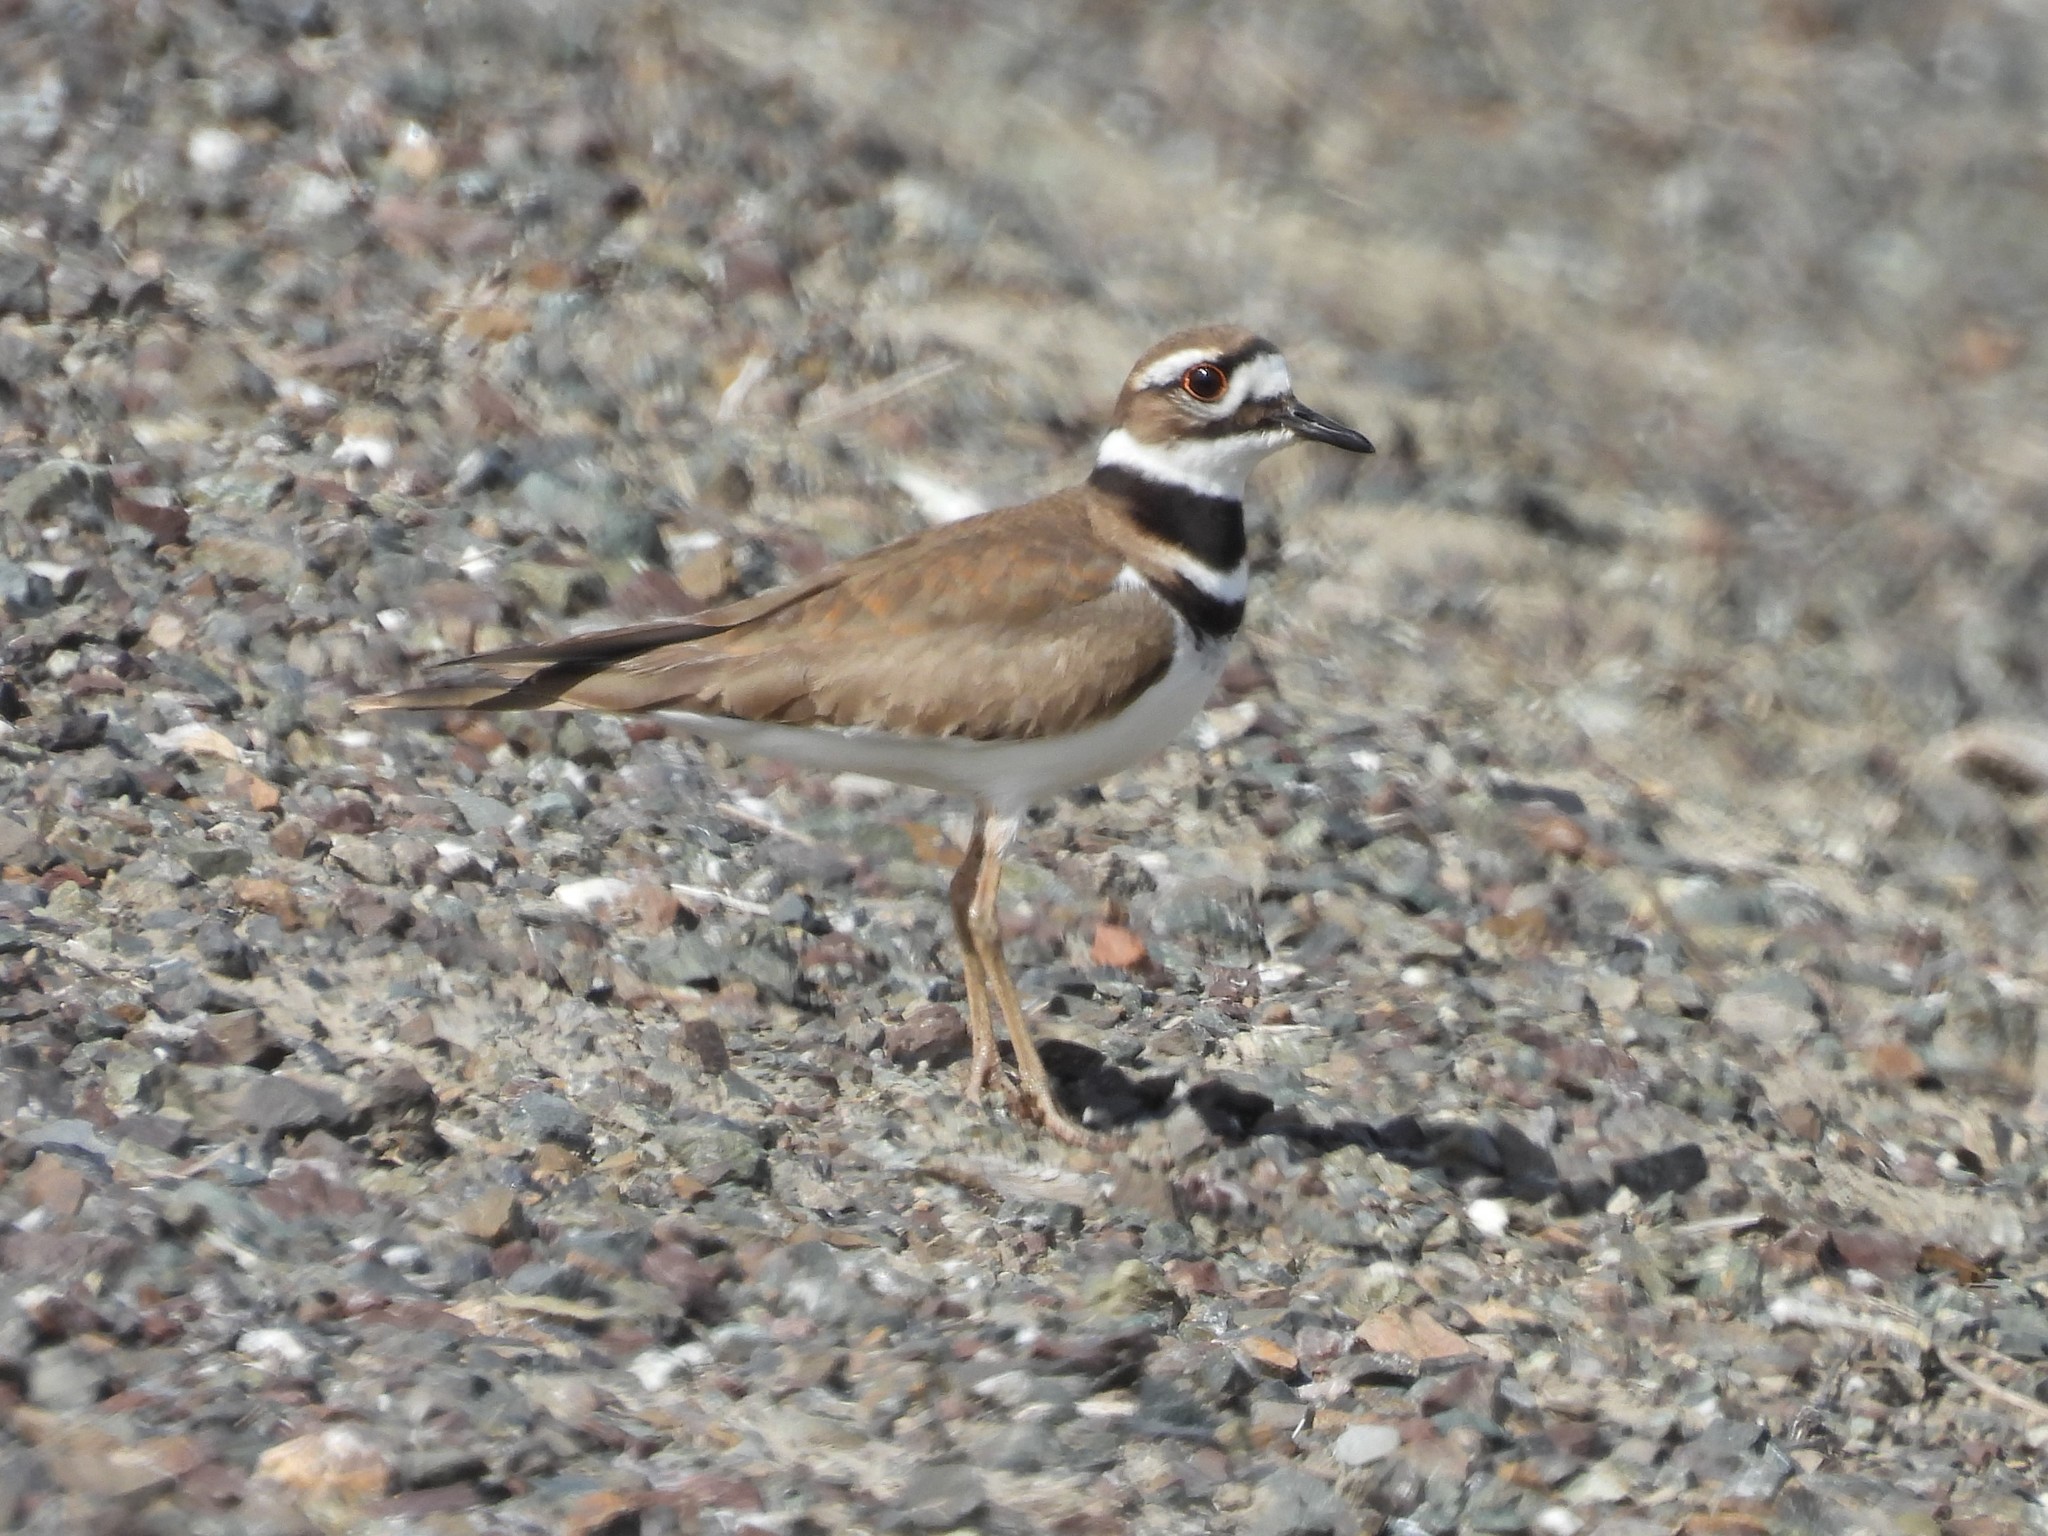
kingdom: Animalia
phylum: Chordata
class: Aves
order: Charadriiformes
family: Charadriidae
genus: Charadrius
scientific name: Charadrius vociferus
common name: Killdeer
